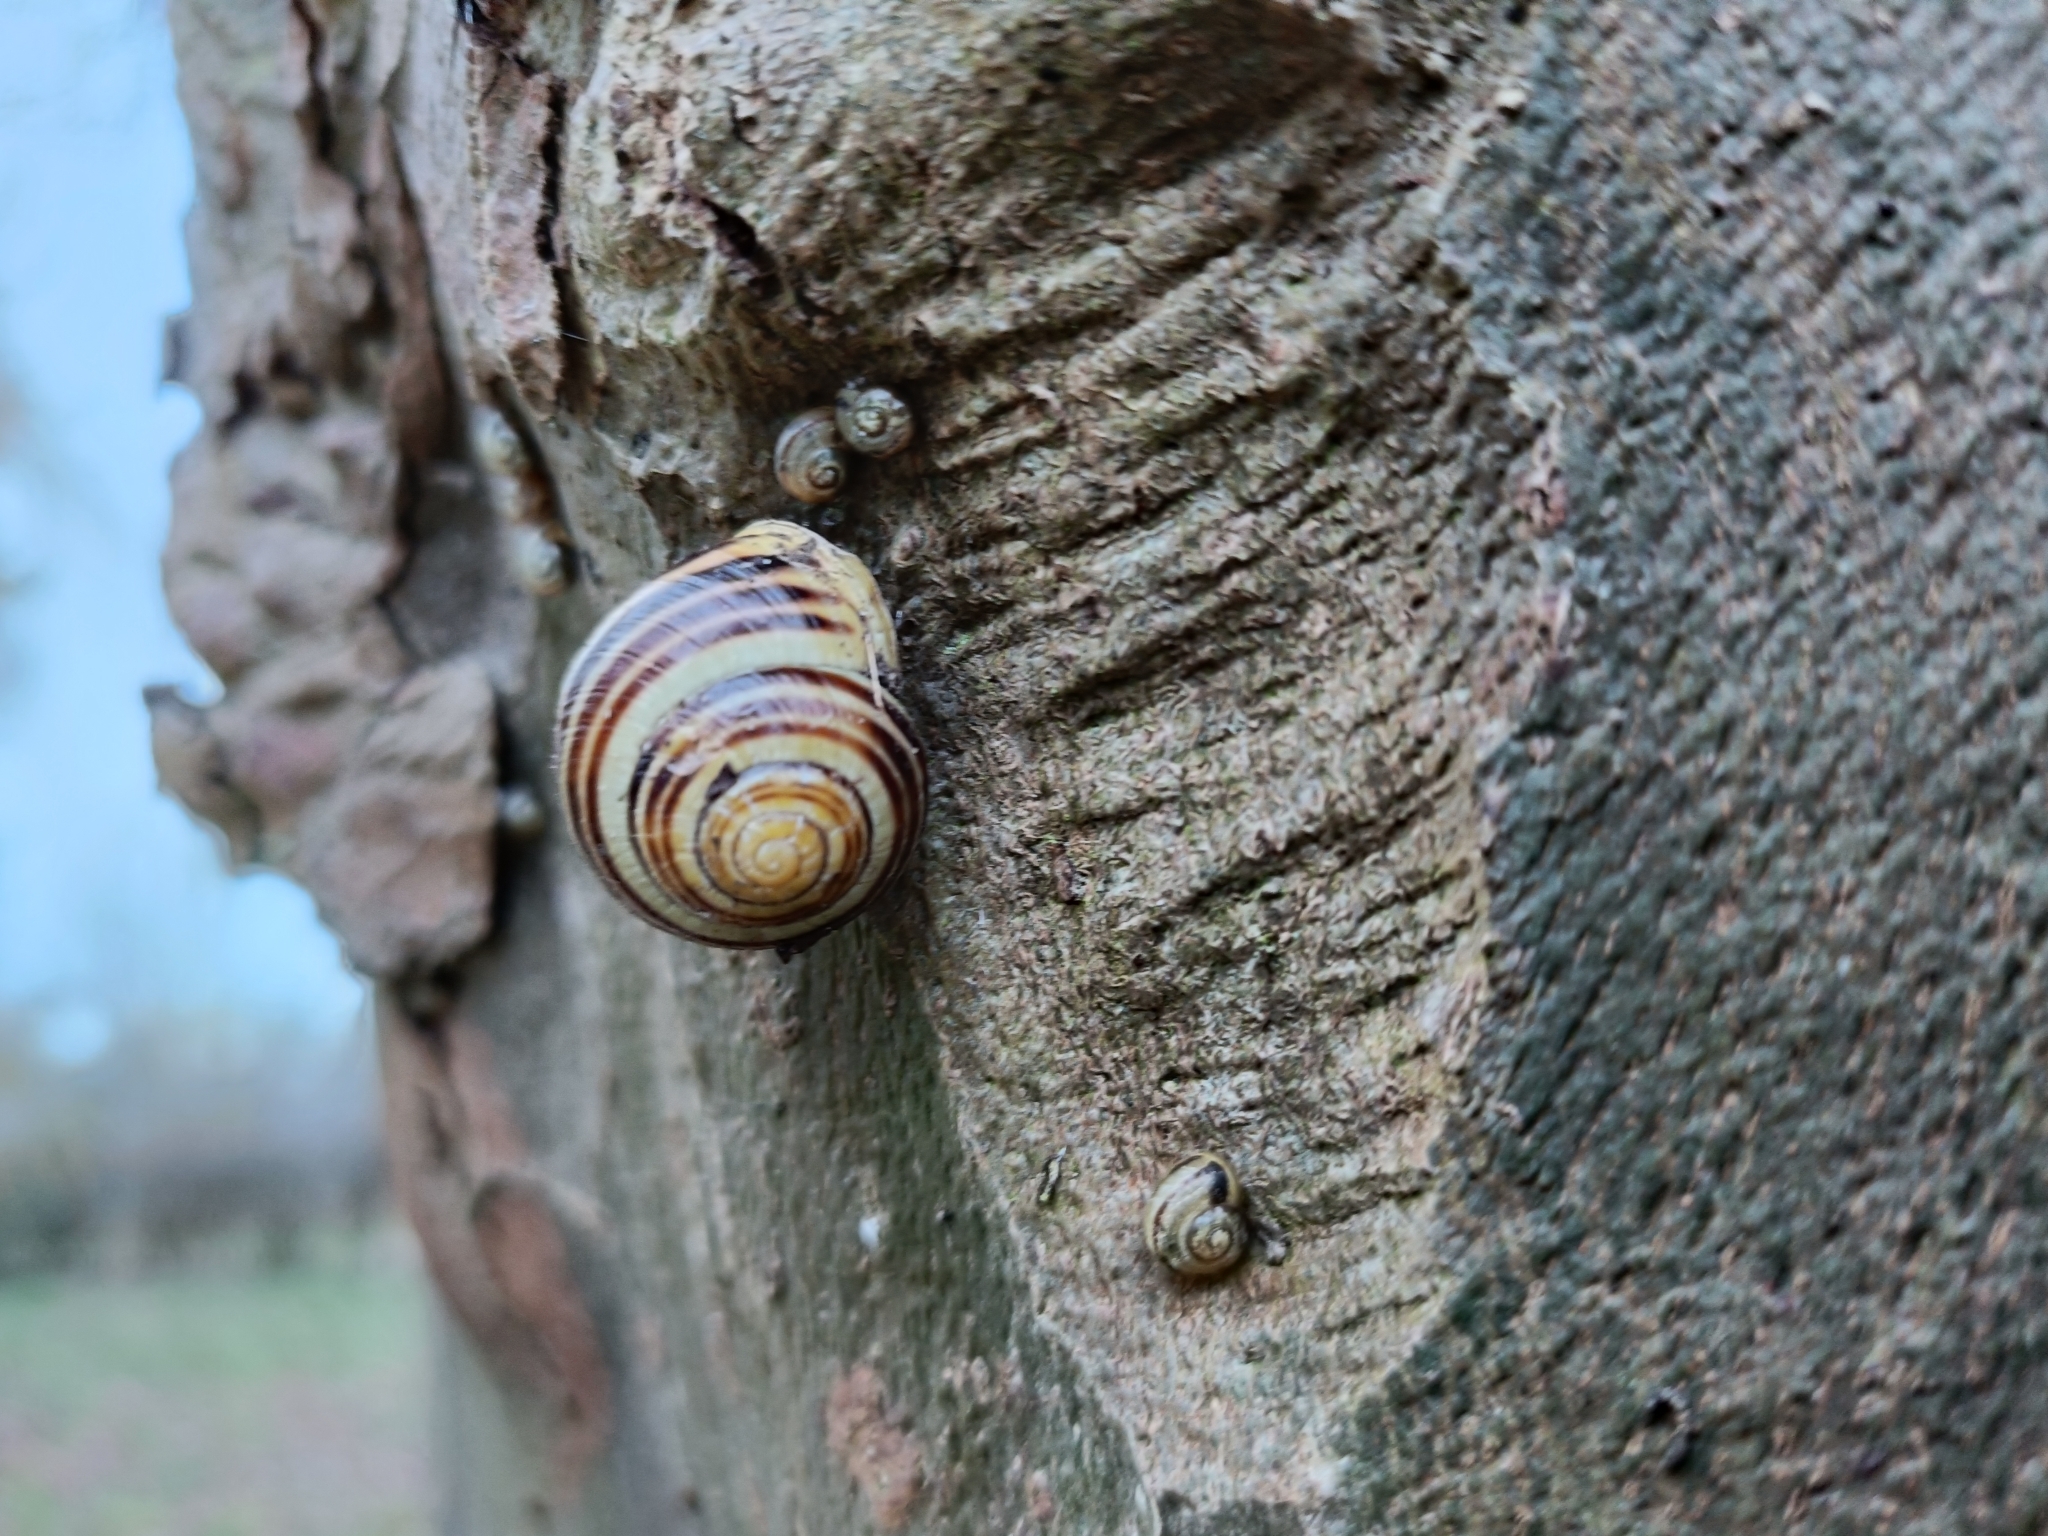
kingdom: Animalia
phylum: Mollusca
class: Gastropoda
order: Stylommatophora
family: Helicidae
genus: Cepaea
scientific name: Cepaea hortensis
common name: White-lip gardensnail
